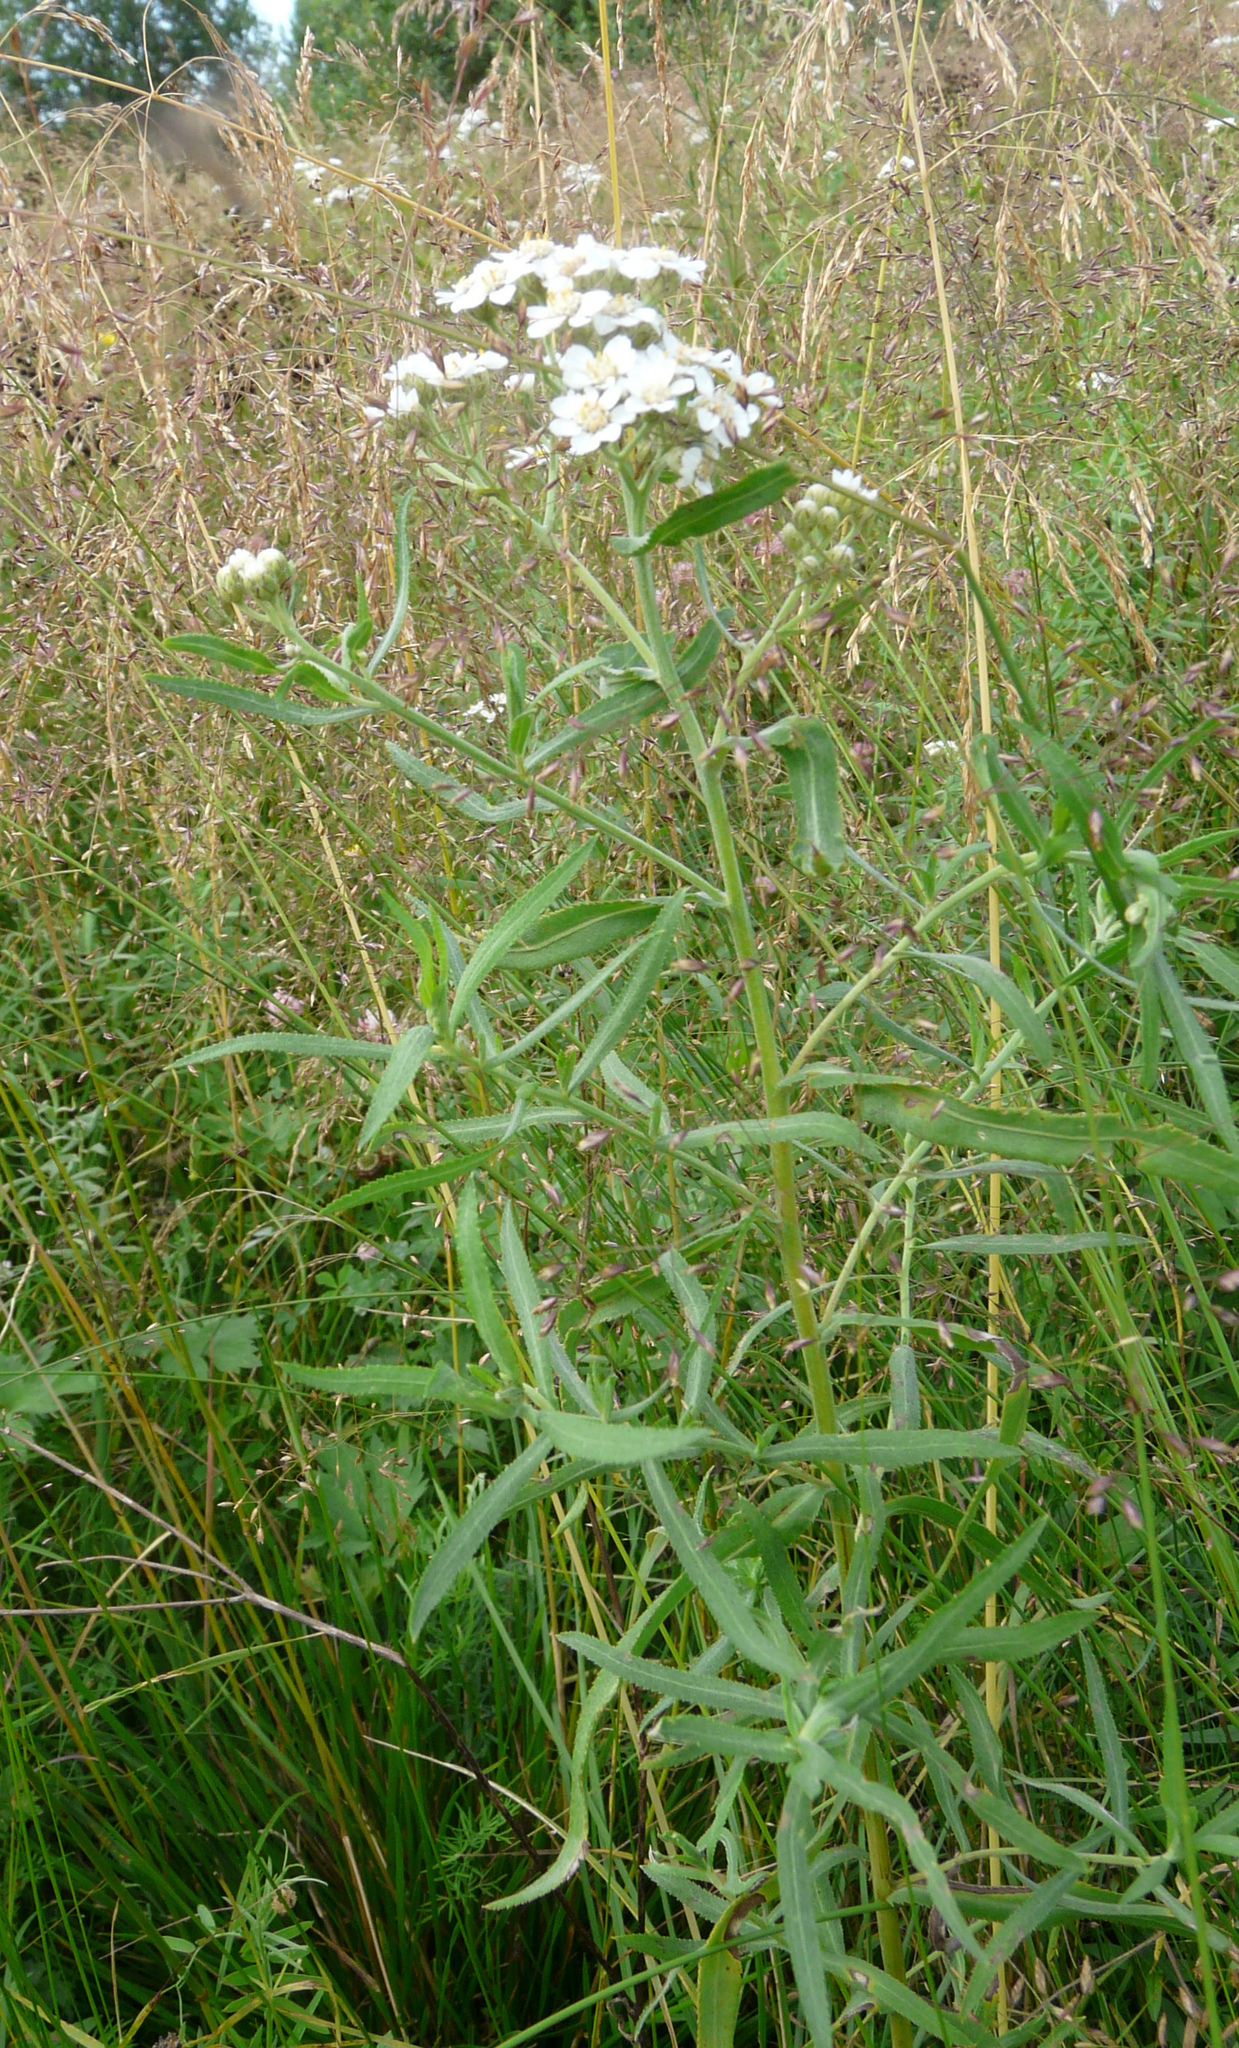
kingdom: Plantae
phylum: Tracheophyta
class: Magnoliopsida
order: Asterales
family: Asteraceae
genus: Achillea
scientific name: Achillea salicifolia
